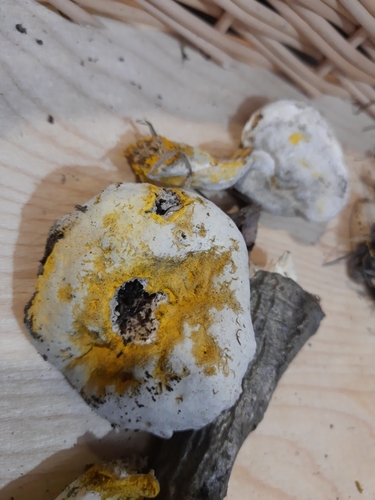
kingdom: Fungi
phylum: Ascomycota
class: Sordariomycetes
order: Hypocreales
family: Hypocreaceae
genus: Hypomyces
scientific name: Hypomyces chrysospermus
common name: Bolete mould
